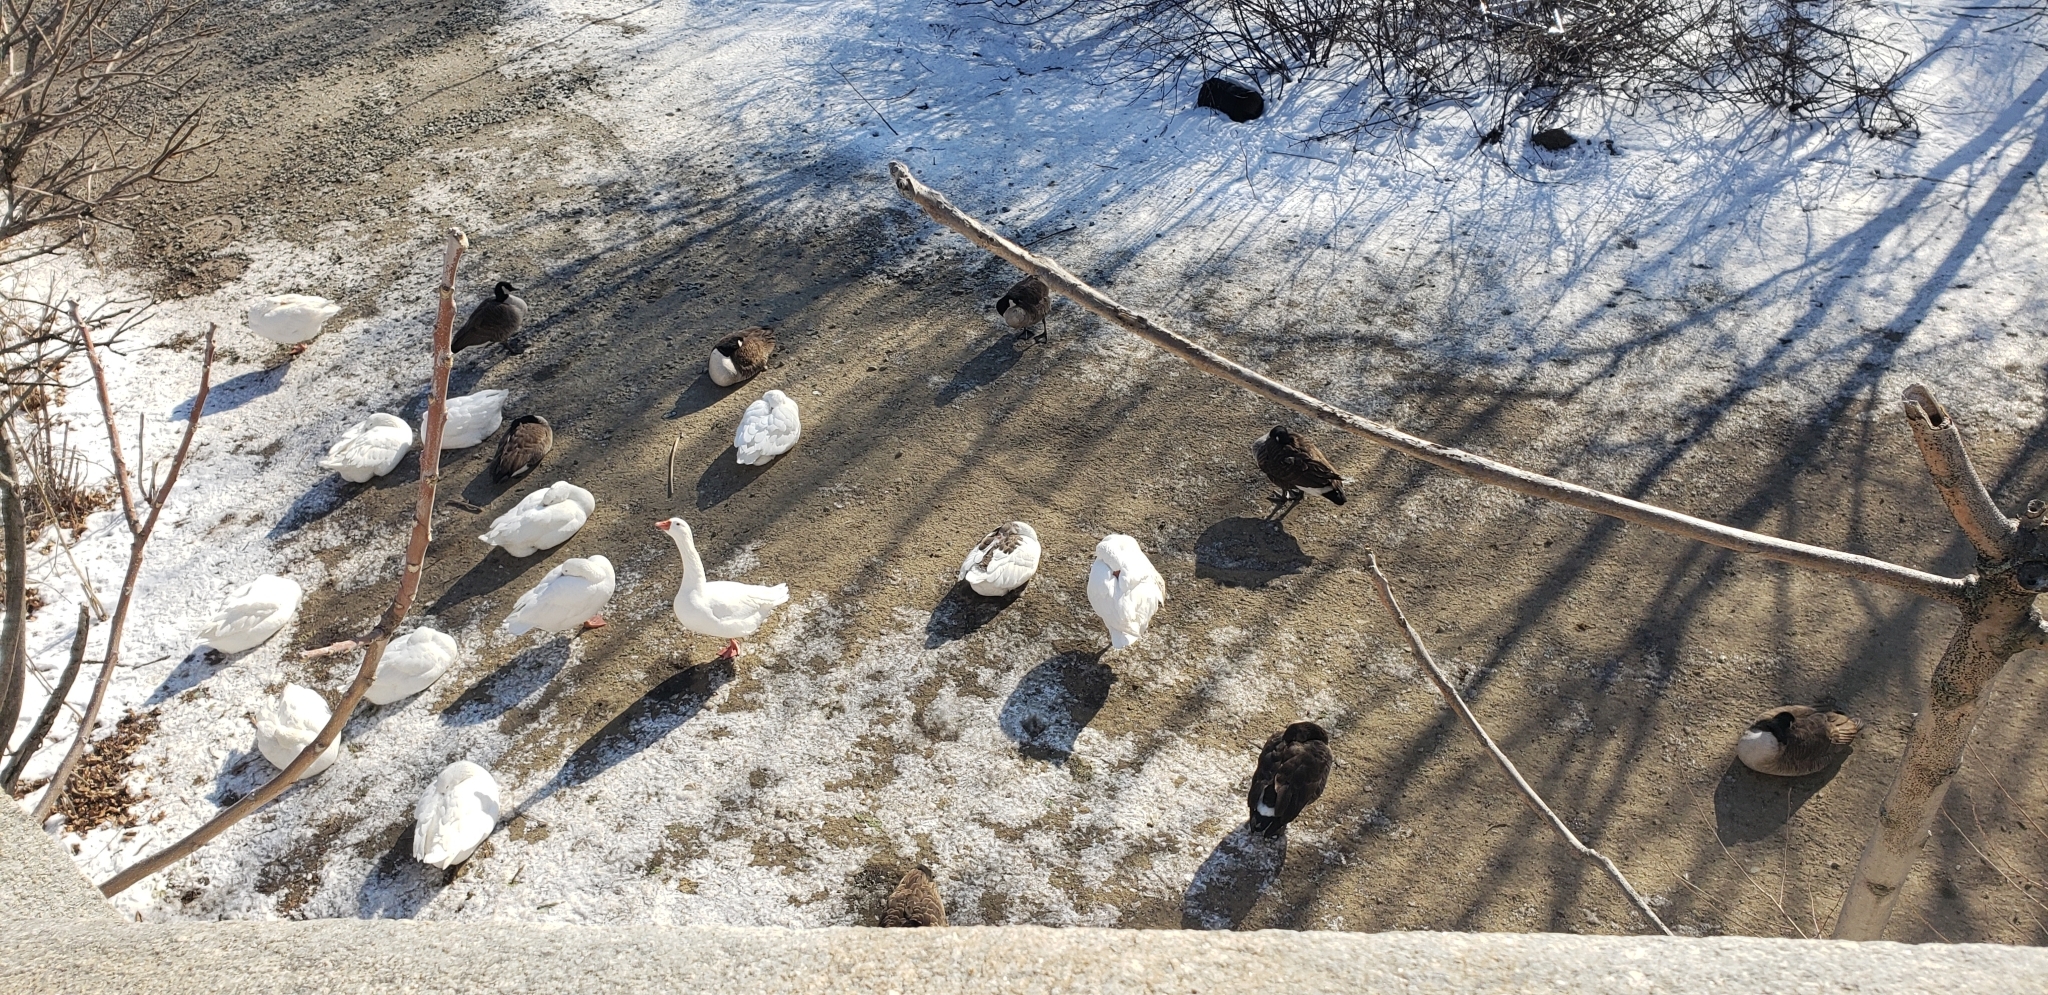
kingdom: Animalia
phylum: Chordata
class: Aves
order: Anseriformes
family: Anatidae
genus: Anser
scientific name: Anser anser
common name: Greylag goose
